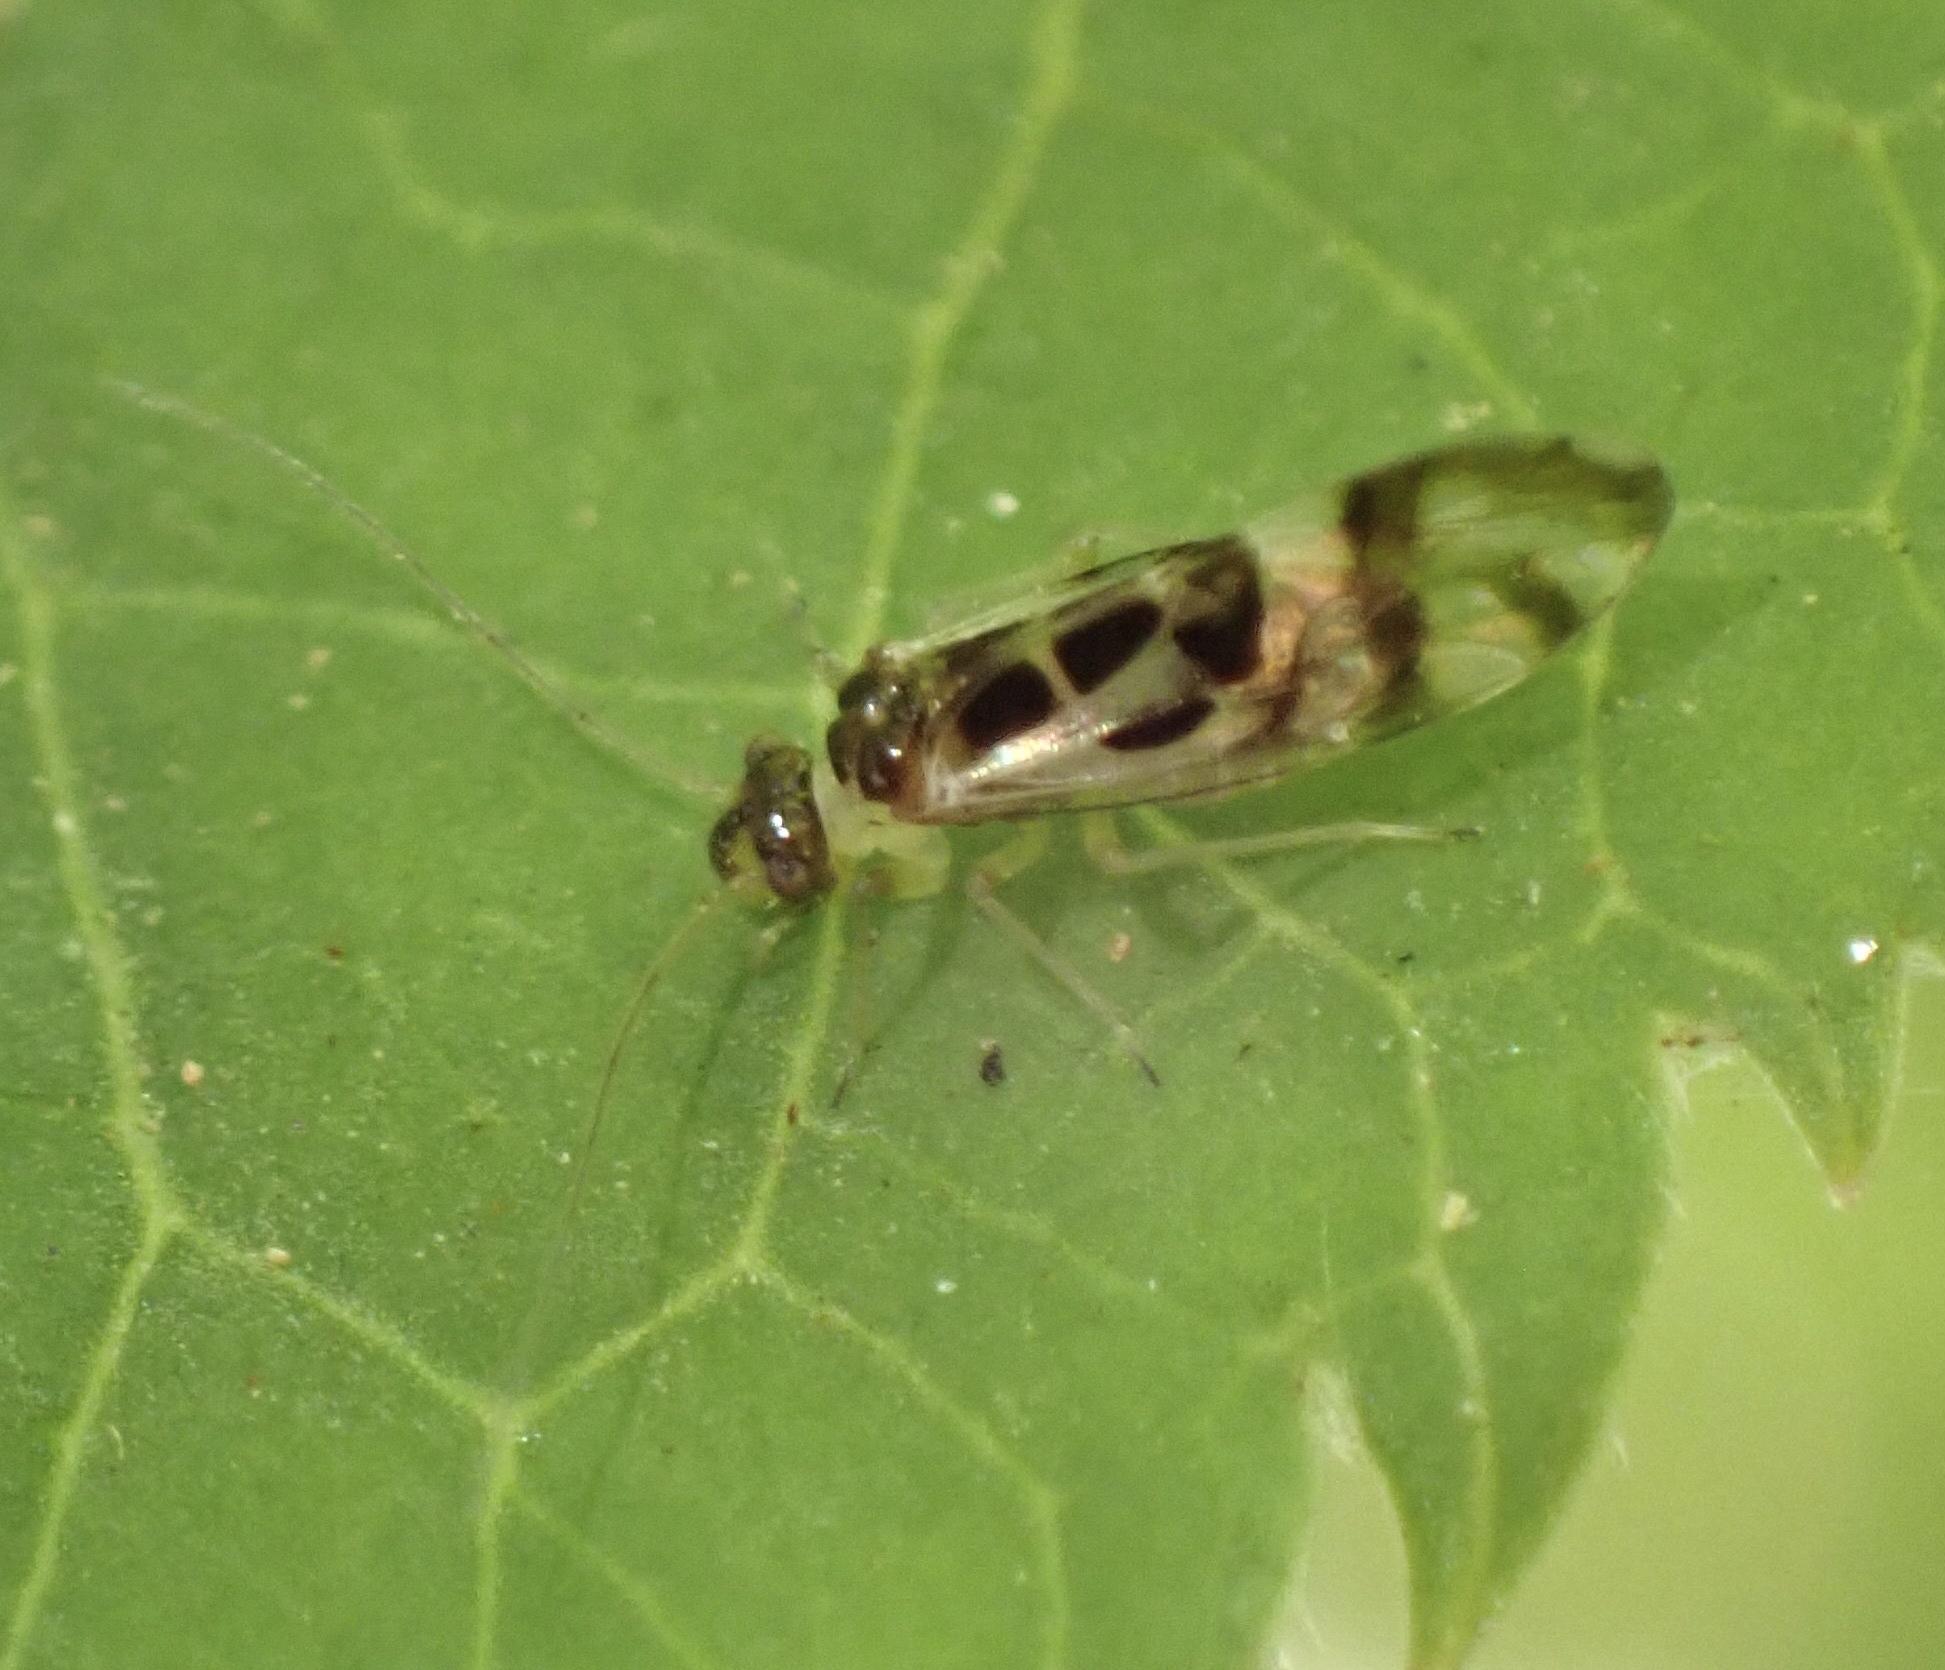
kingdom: Animalia
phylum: Arthropoda
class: Insecta
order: Psocodea
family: Stenopsocidae
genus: Graphopsocus
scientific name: Graphopsocus cruciatus
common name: Lizard bark louse
